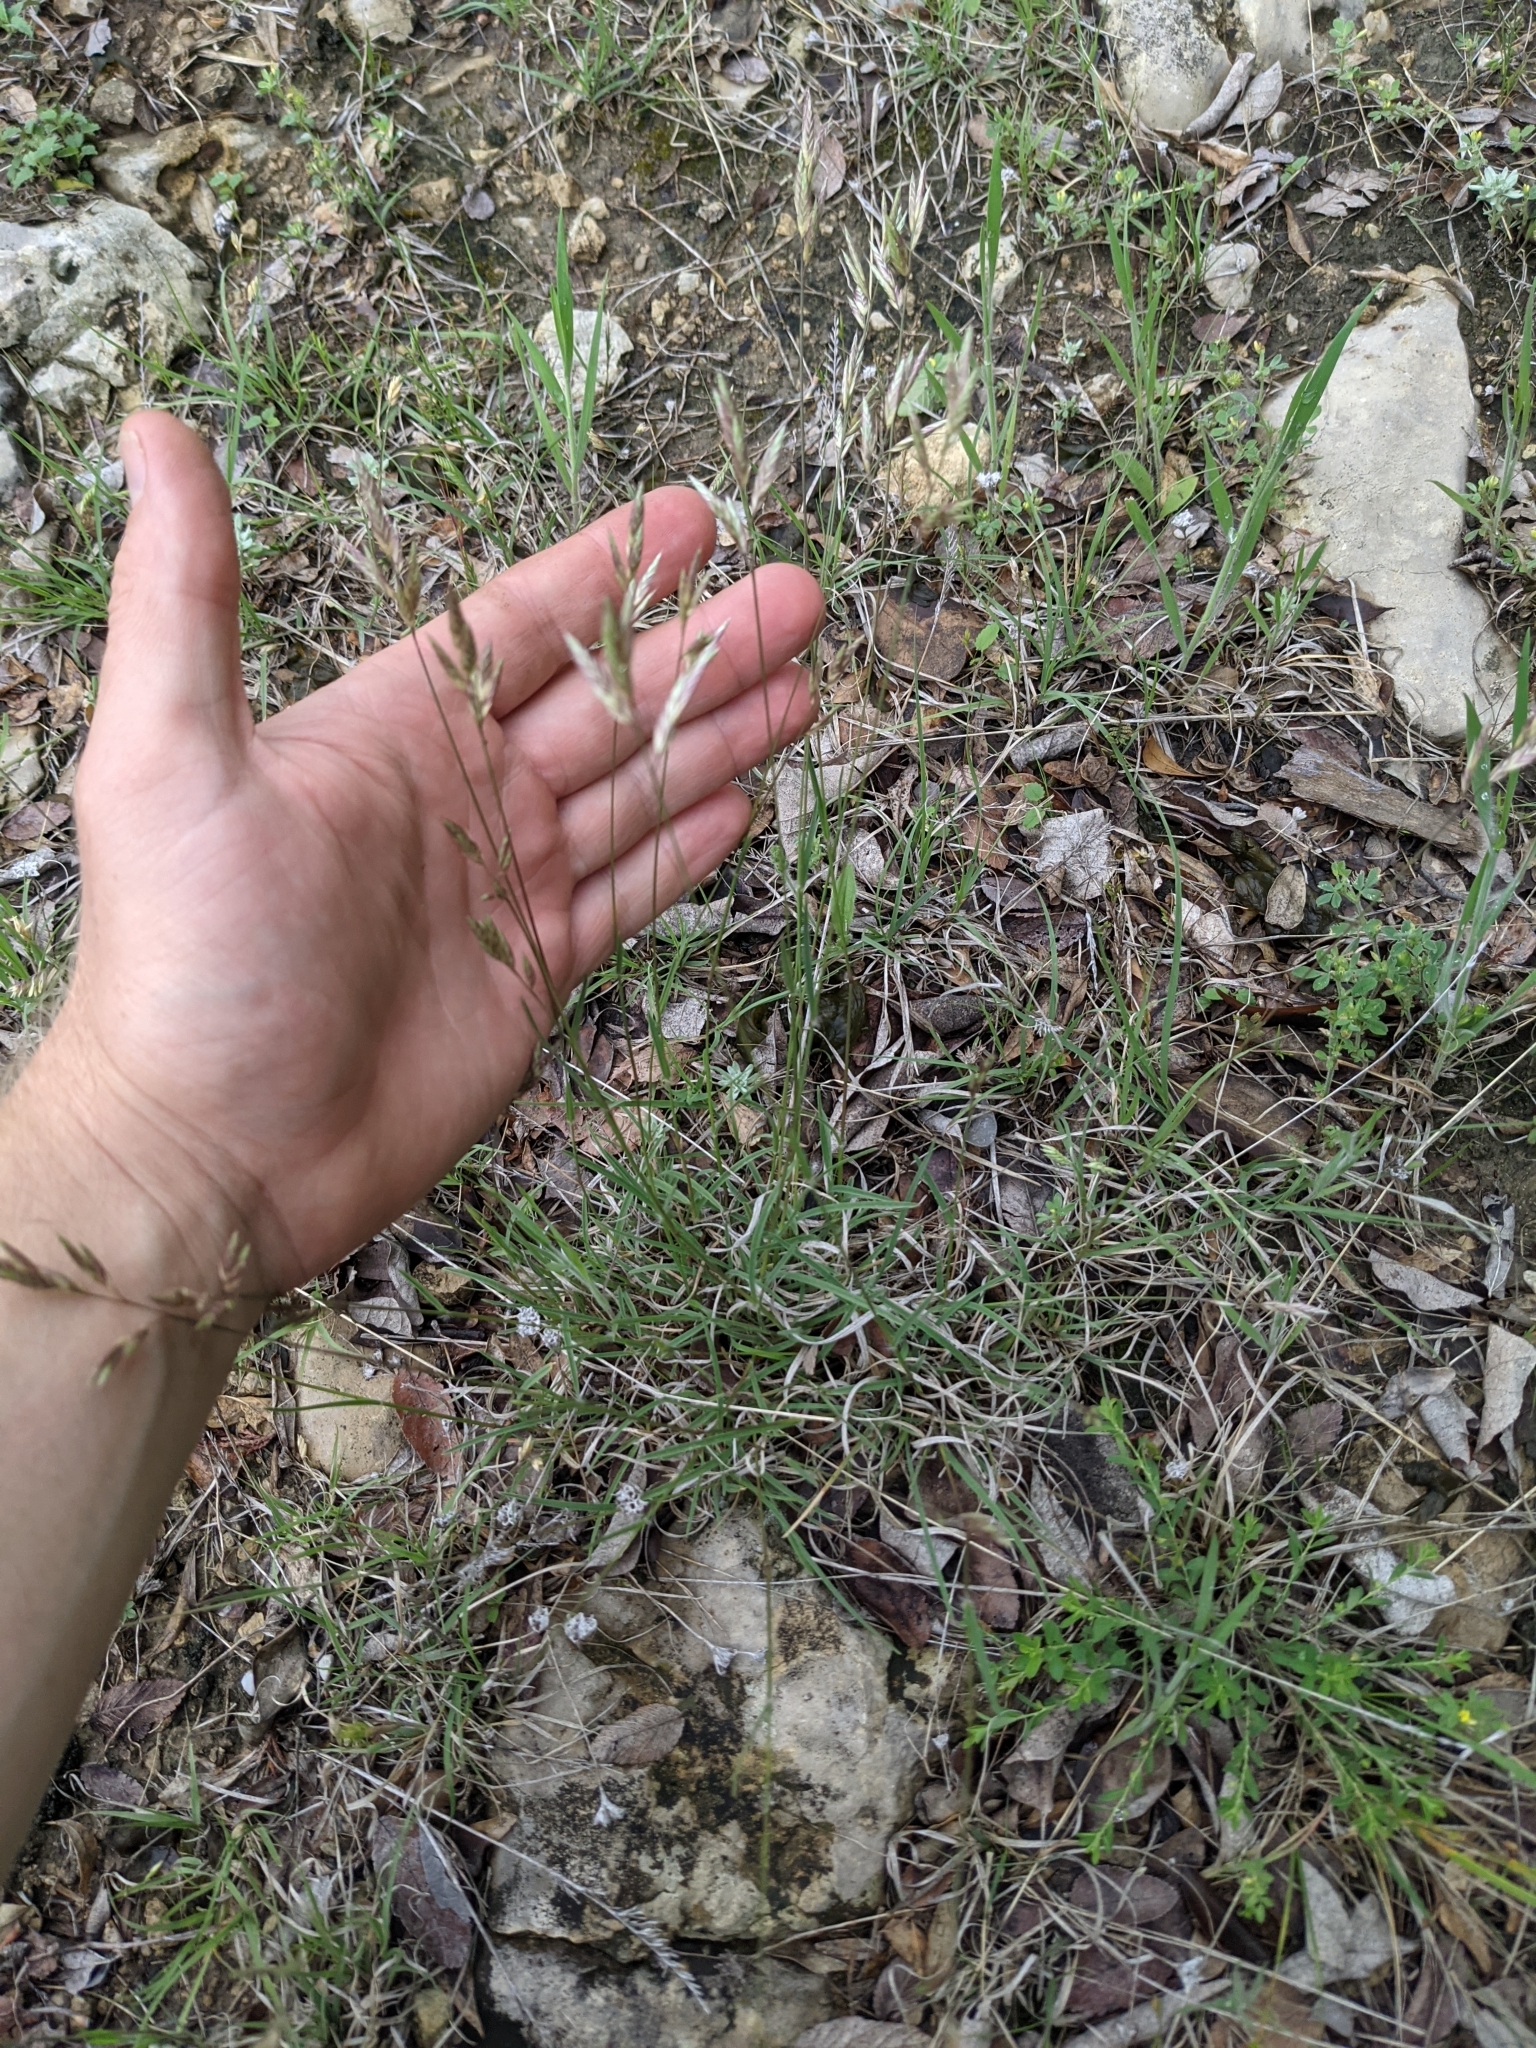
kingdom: Plantae
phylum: Tracheophyta
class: Liliopsida
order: Poales
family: Poaceae
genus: Erioneuron
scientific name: Erioneuron pilosum
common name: Hairy woolly grass
